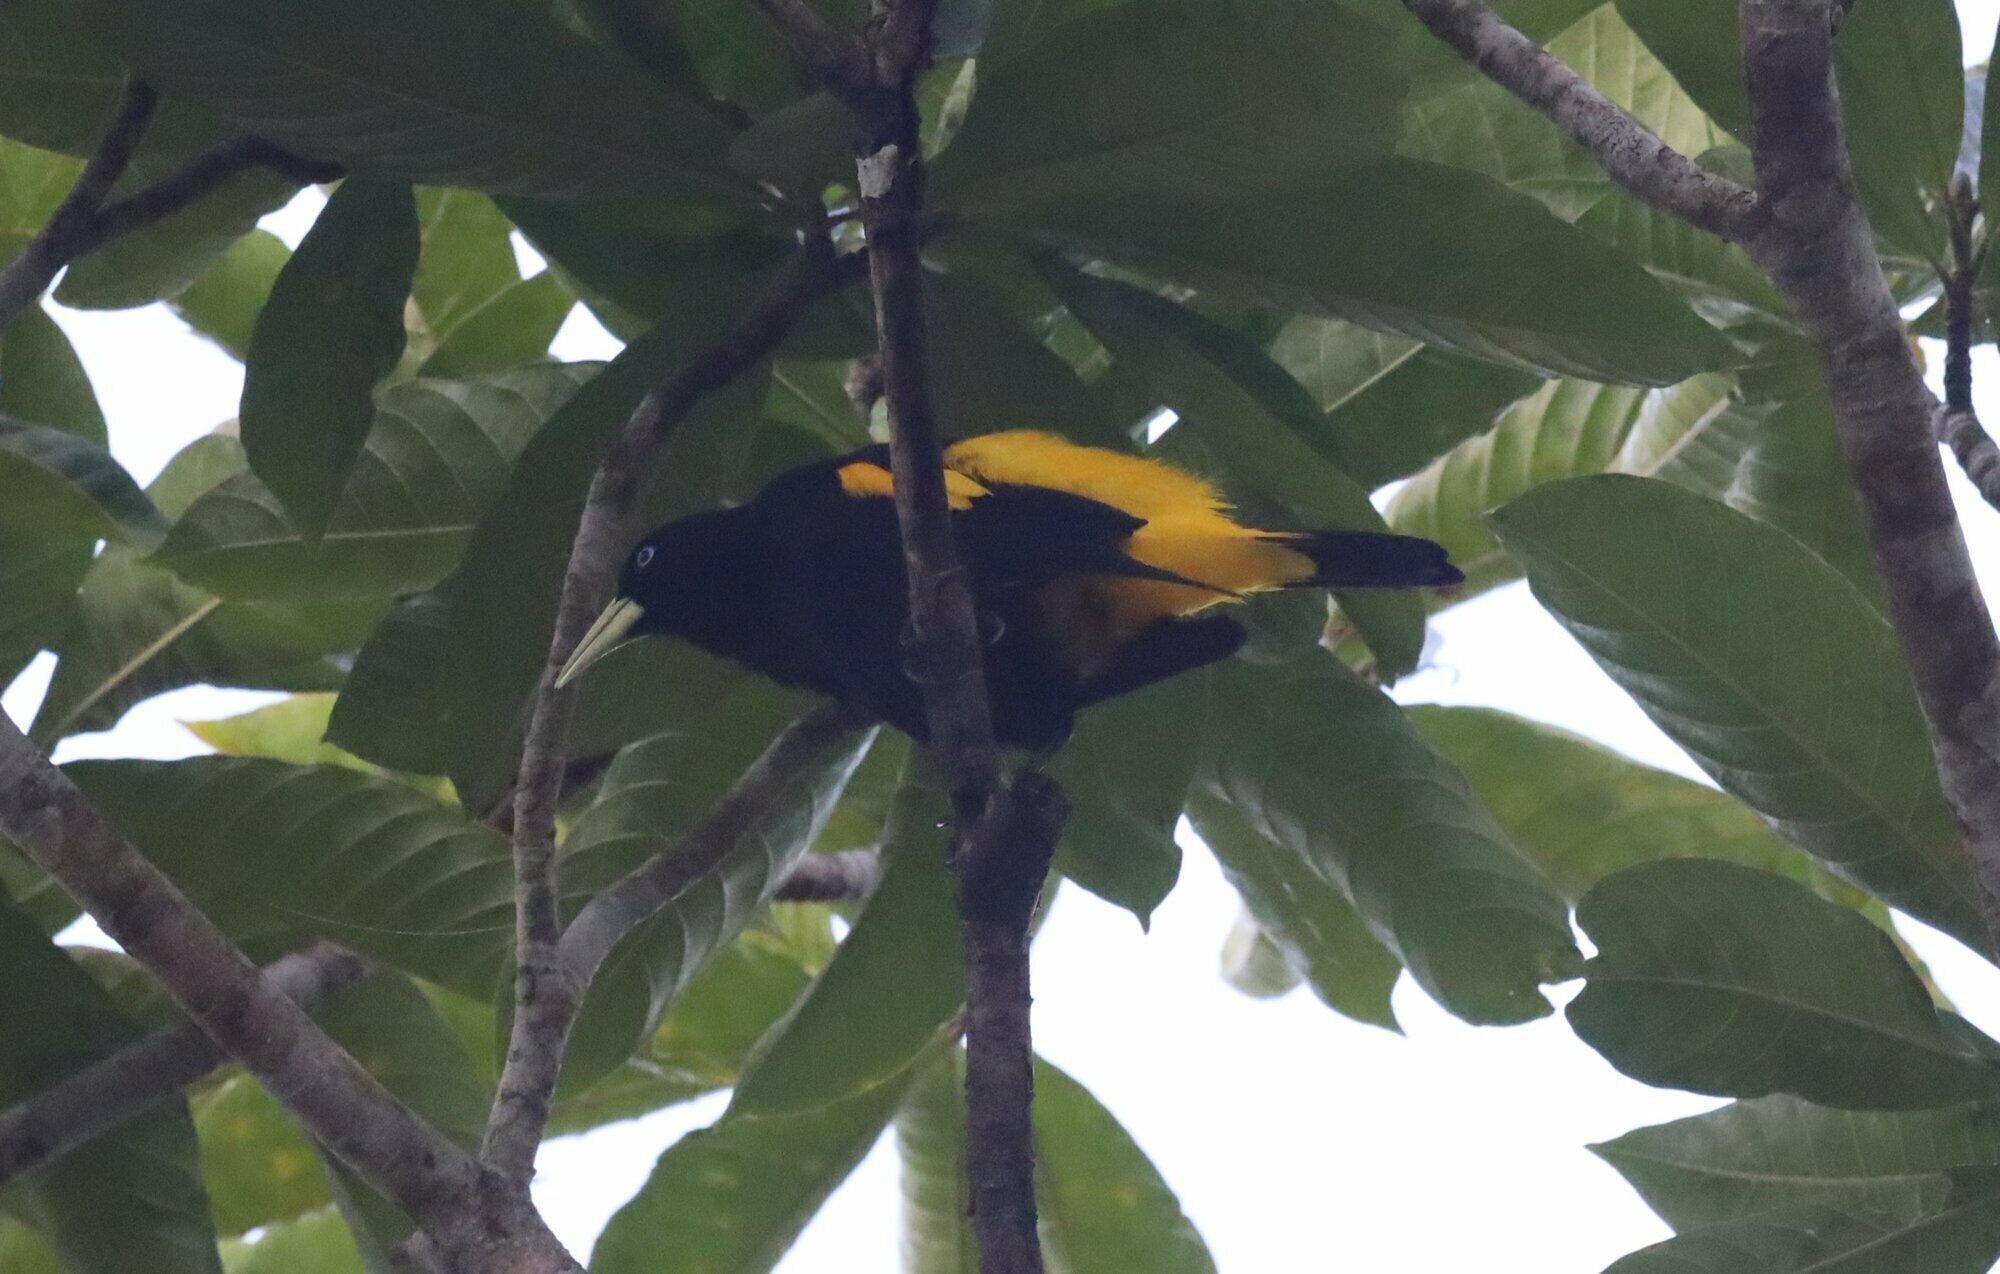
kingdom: Animalia
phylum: Chordata
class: Aves
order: Passeriformes
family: Icteridae
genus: Cacicus
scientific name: Cacicus cela
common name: Yellow-rumped cacique
